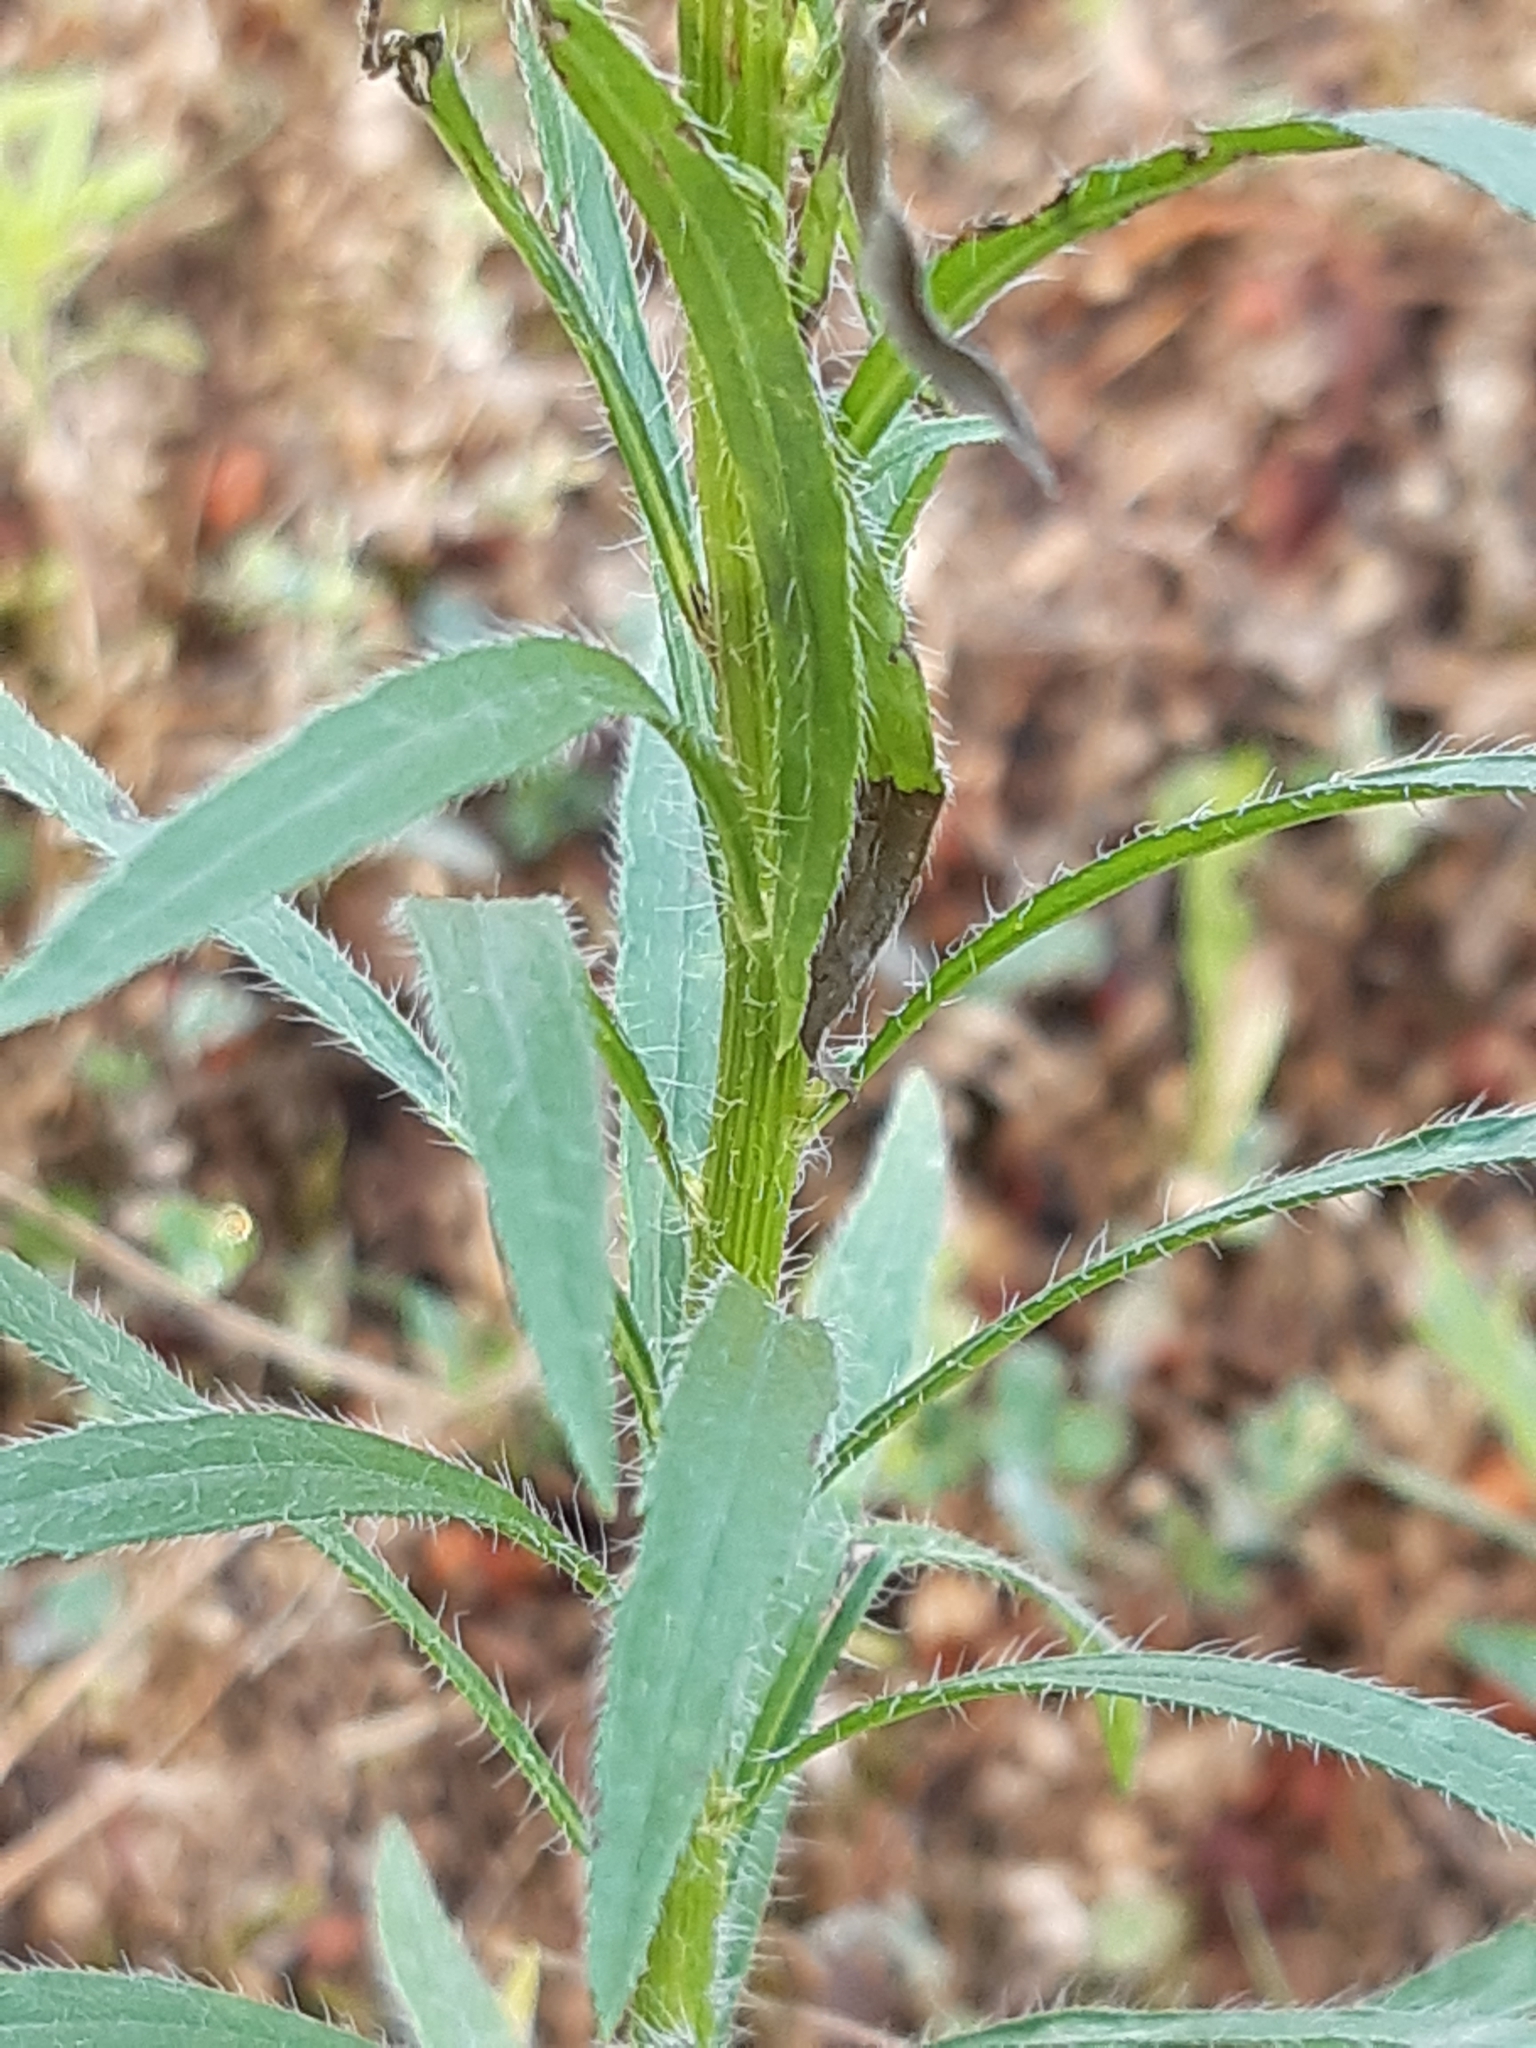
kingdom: Plantae
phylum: Tracheophyta
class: Magnoliopsida
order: Asterales
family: Asteraceae
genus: Erigeron
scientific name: Erigeron canadensis
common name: Canadian fleabane
